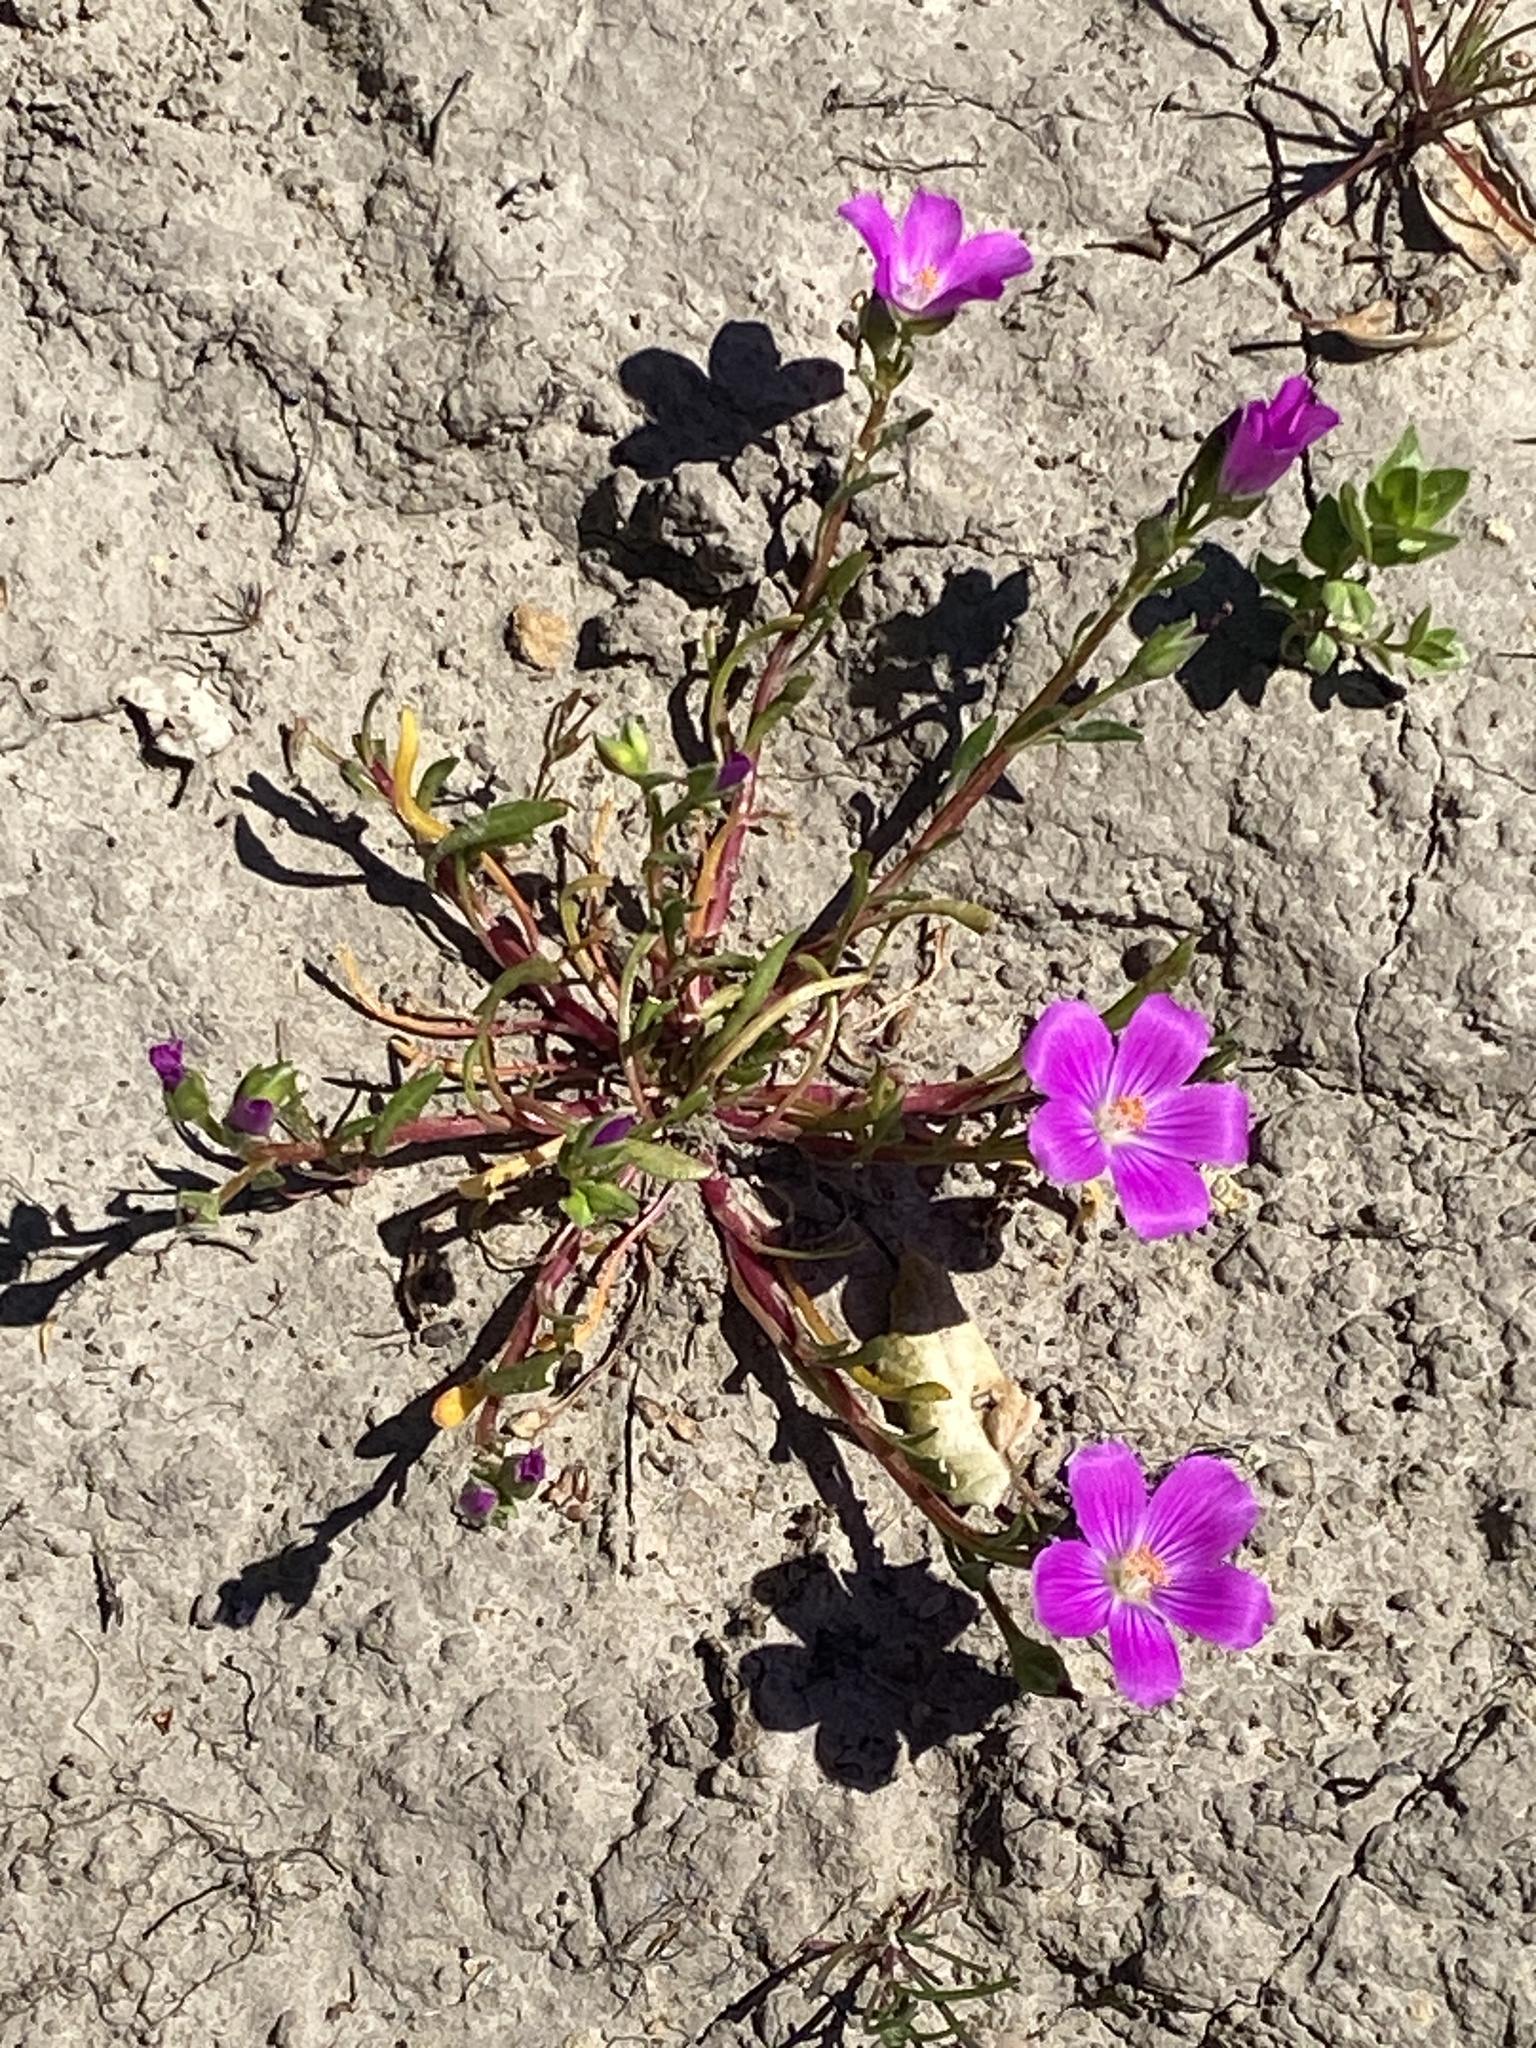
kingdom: Plantae
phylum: Tracheophyta
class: Magnoliopsida
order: Caryophyllales
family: Montiaceae
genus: Calandrinia
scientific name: Calandrinia menziesii
